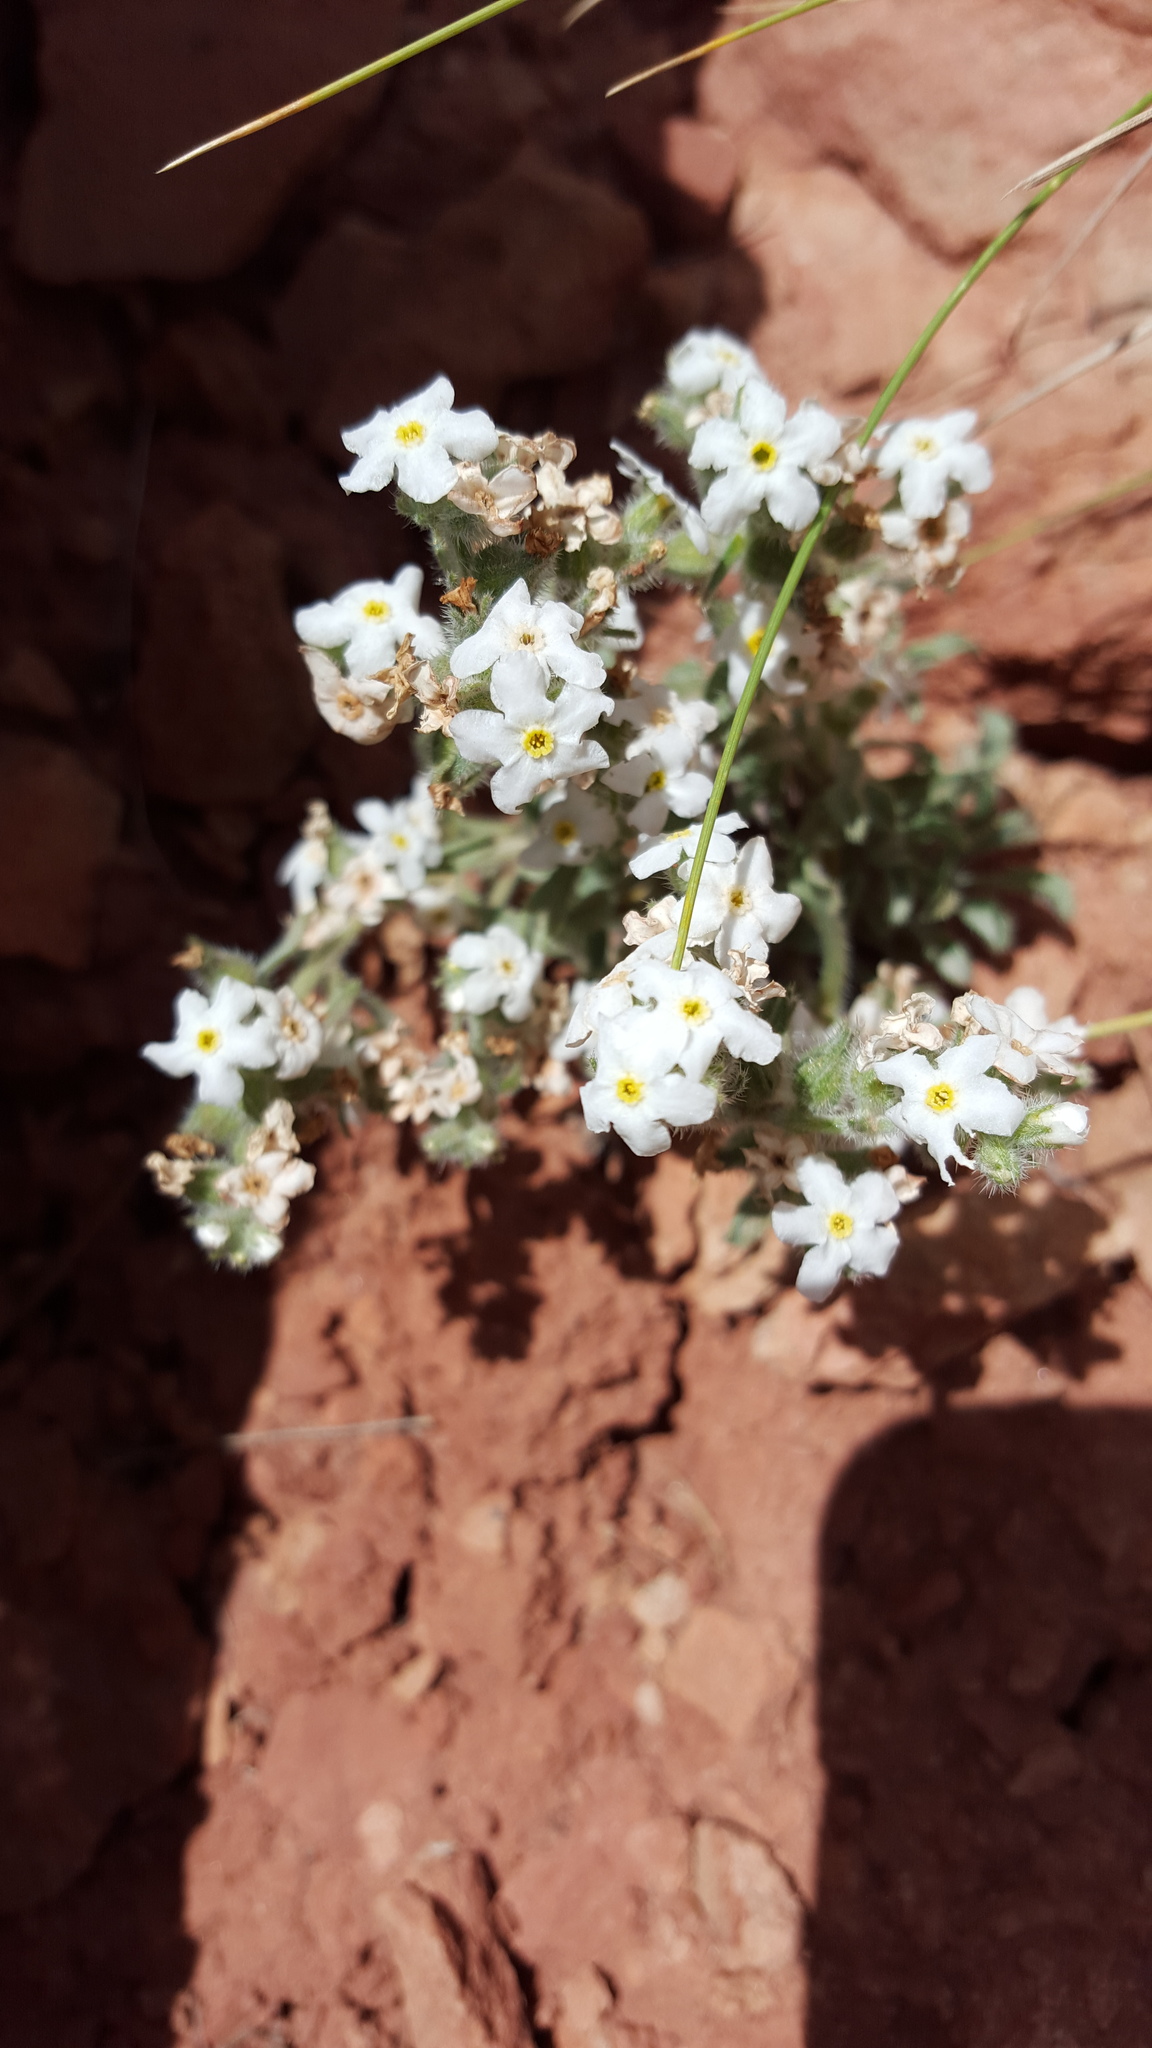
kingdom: Plantae
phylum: Tracheophyta
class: Magnoliopsida
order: Boraginales
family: Boraginaceae
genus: Oreocarya
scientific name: Oreocarya flavoculata
